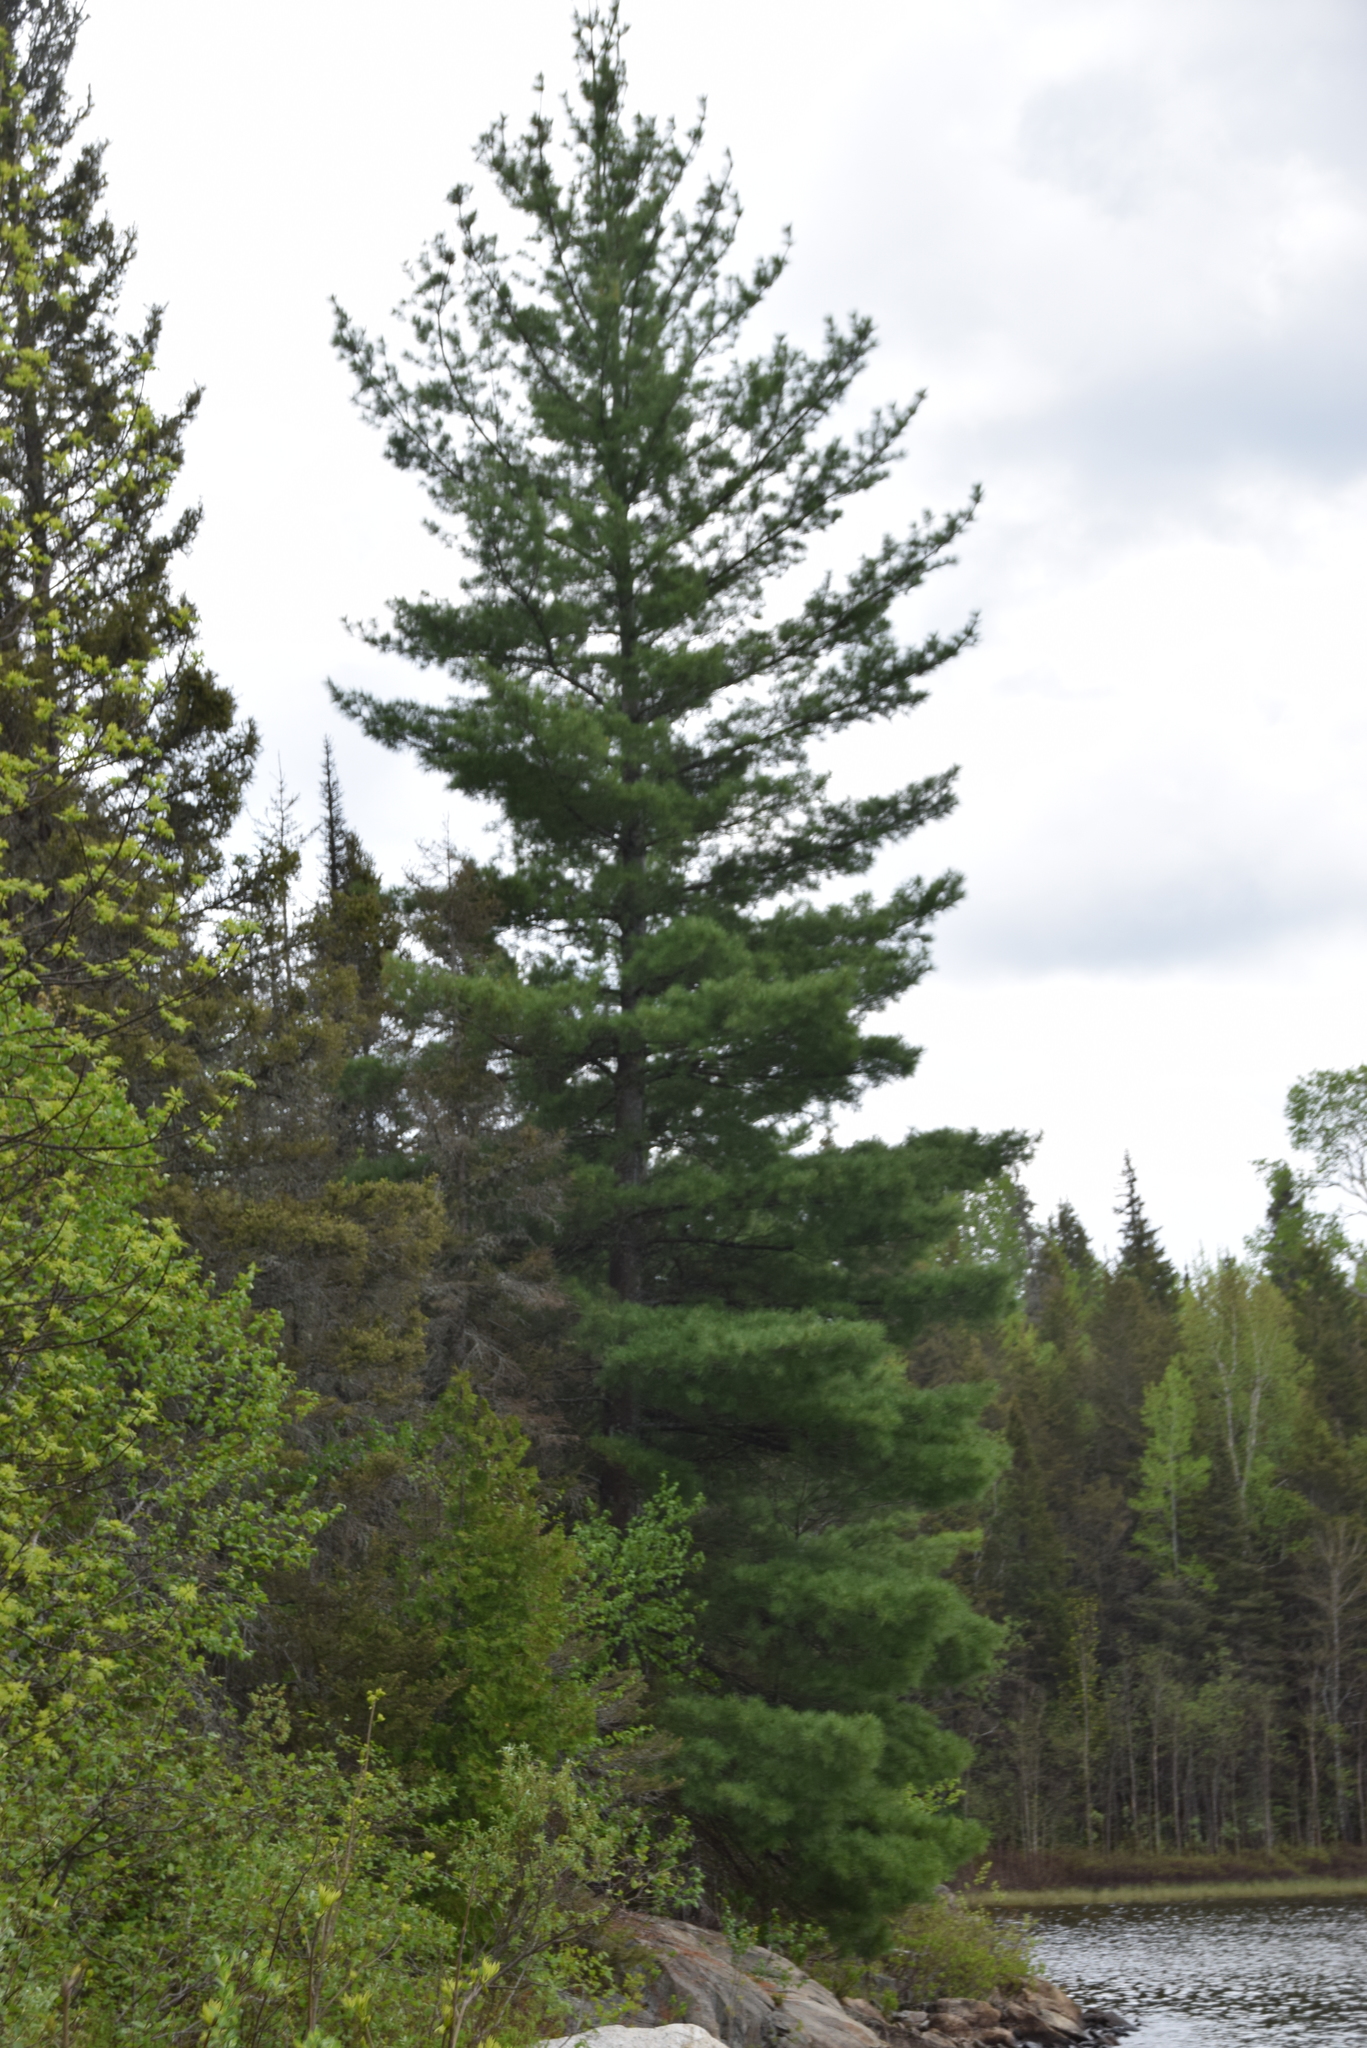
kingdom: Plantae
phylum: Tracheophyta
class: Pinopsida
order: Pinales
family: Pinaceae
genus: Pinus
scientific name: Pinus strobus
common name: Weymouth pine
